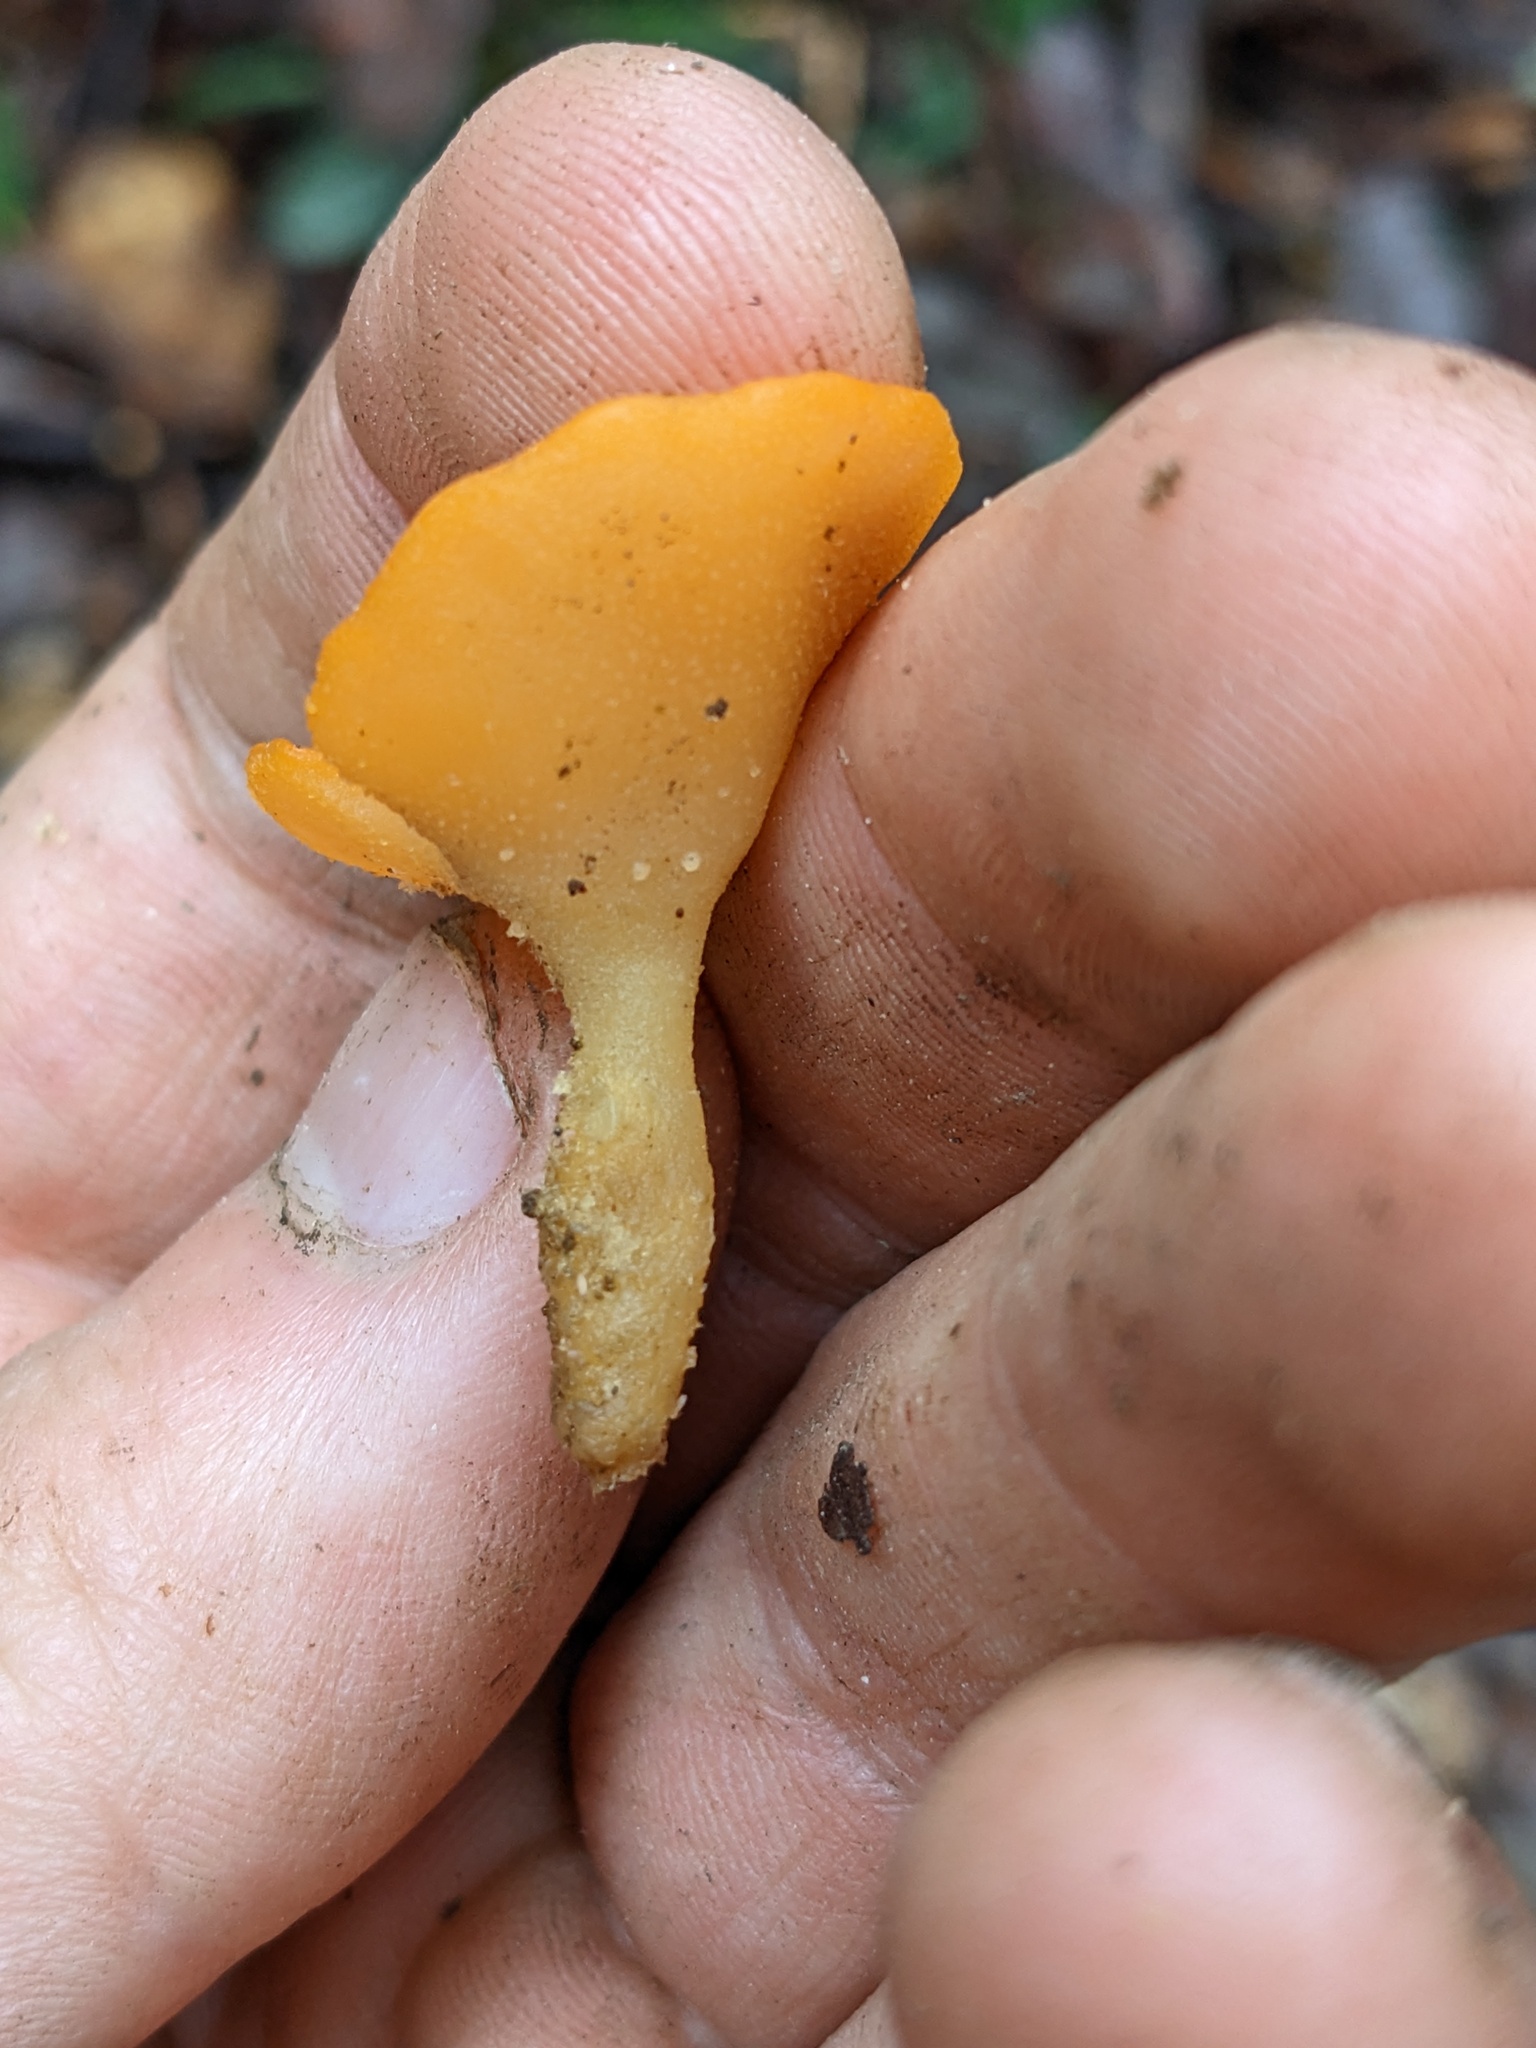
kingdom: Fungi
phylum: Ascomycota
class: Pezizomycetes
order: Pezizales
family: Pyronemataceae
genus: Sowerbyella
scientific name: Sowerbyella rhenana
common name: Stalked orange peel fungus
